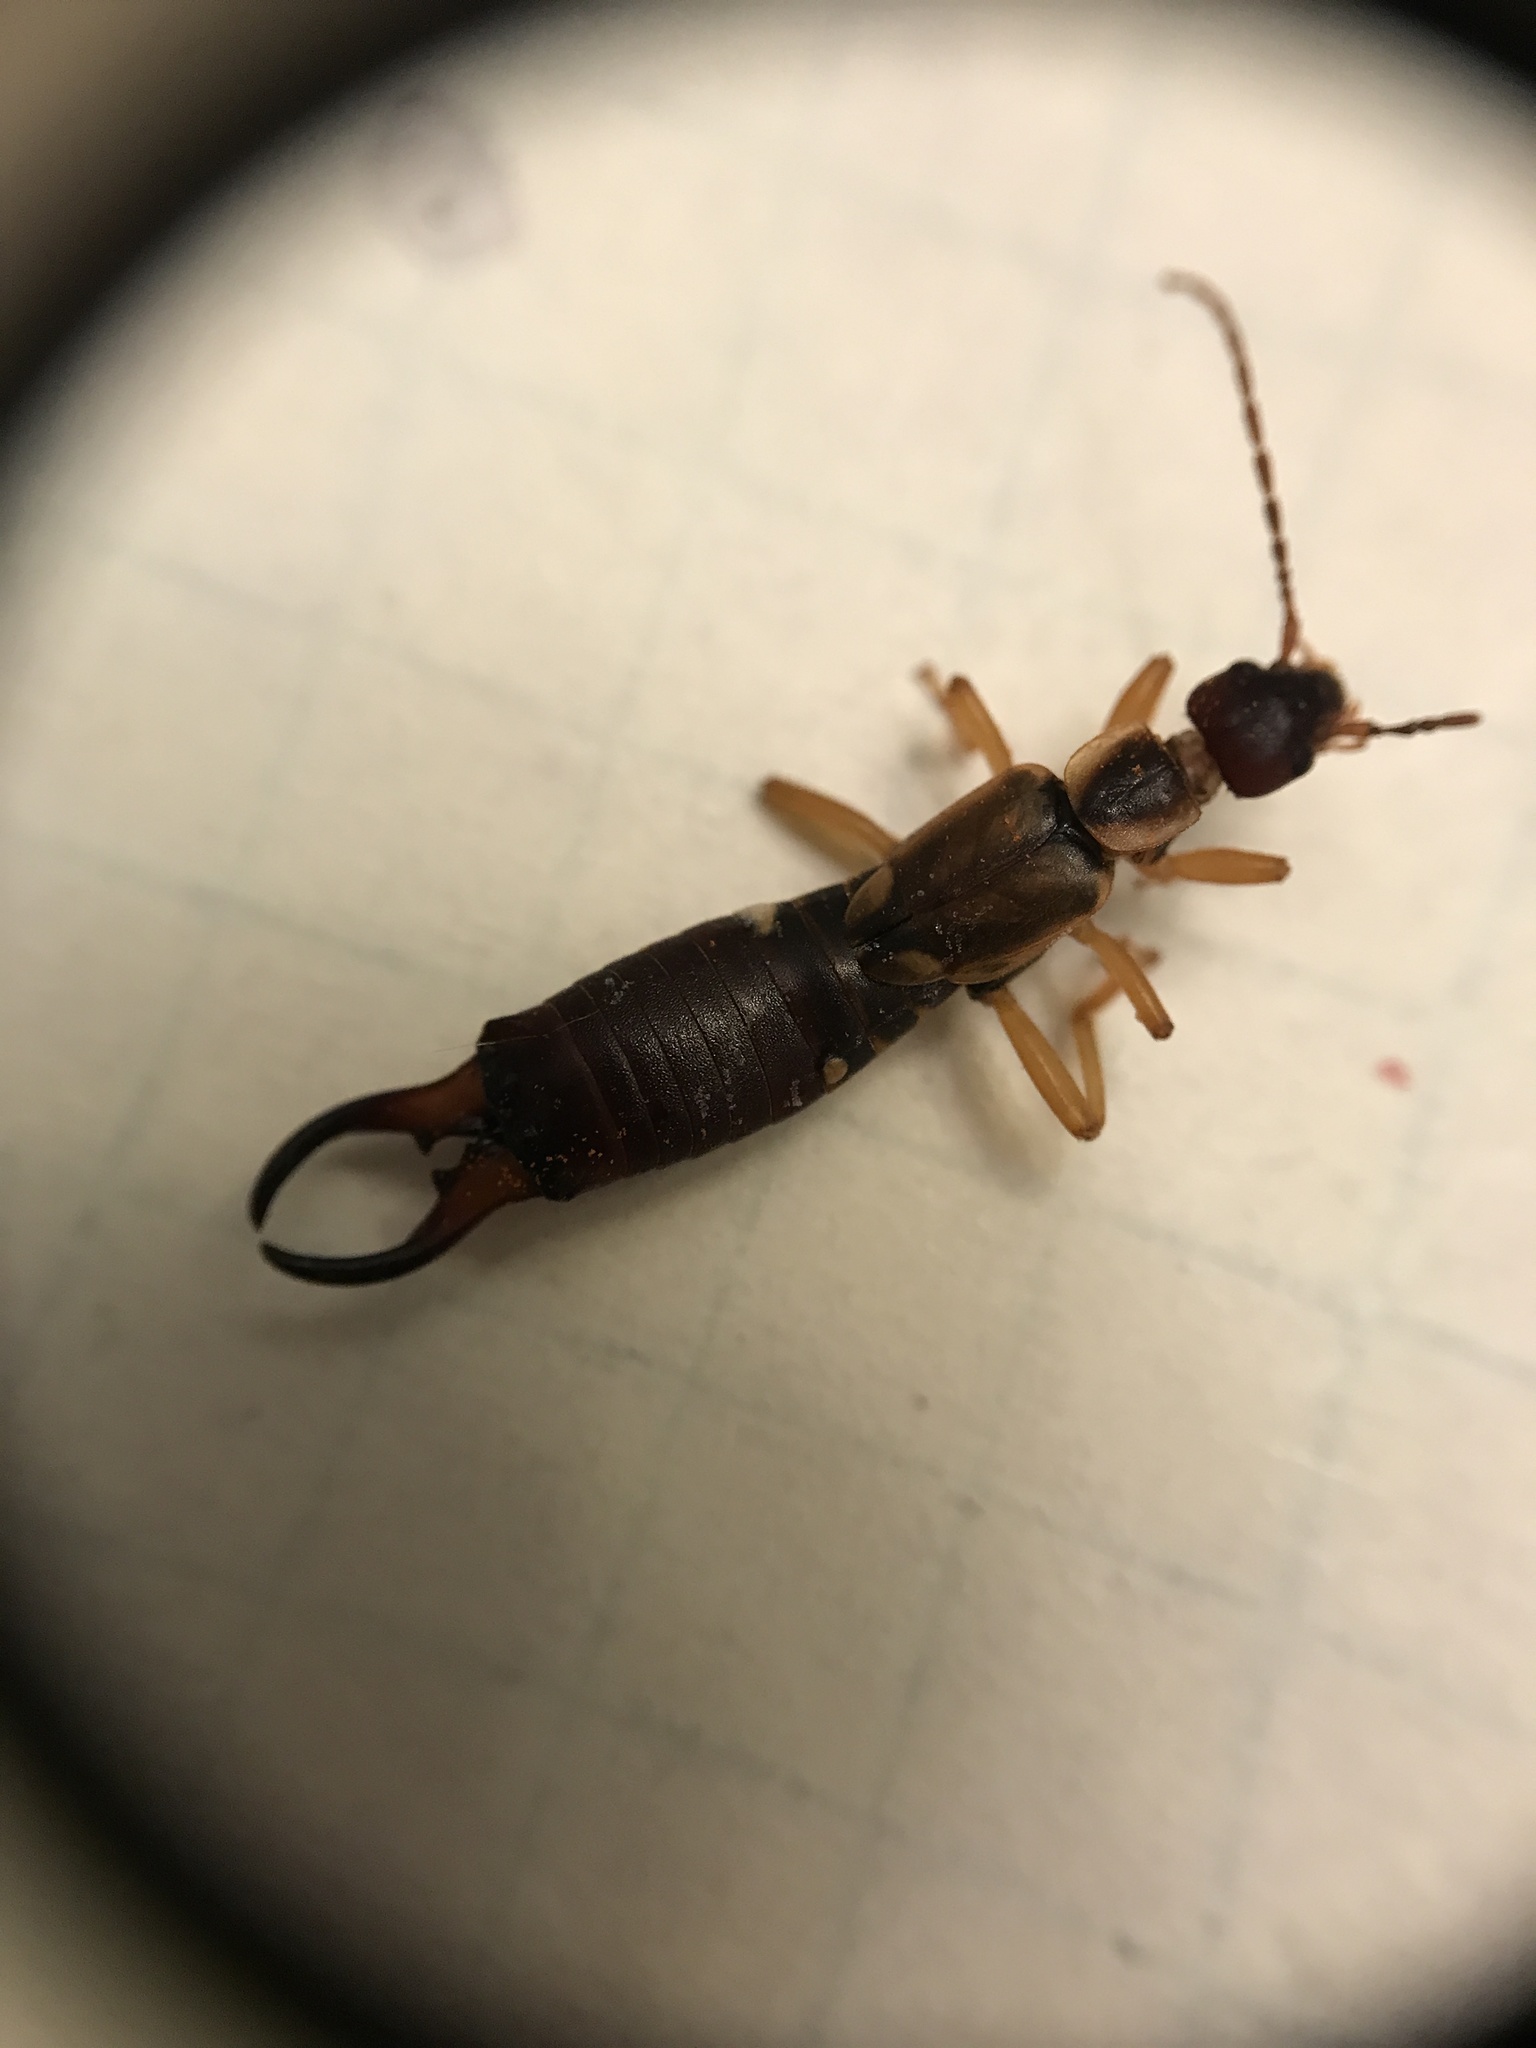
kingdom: Animalia
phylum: Arthropoda
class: Insecta
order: Dermaptera
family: Forficulidae
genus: Forficula
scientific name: Forficula
